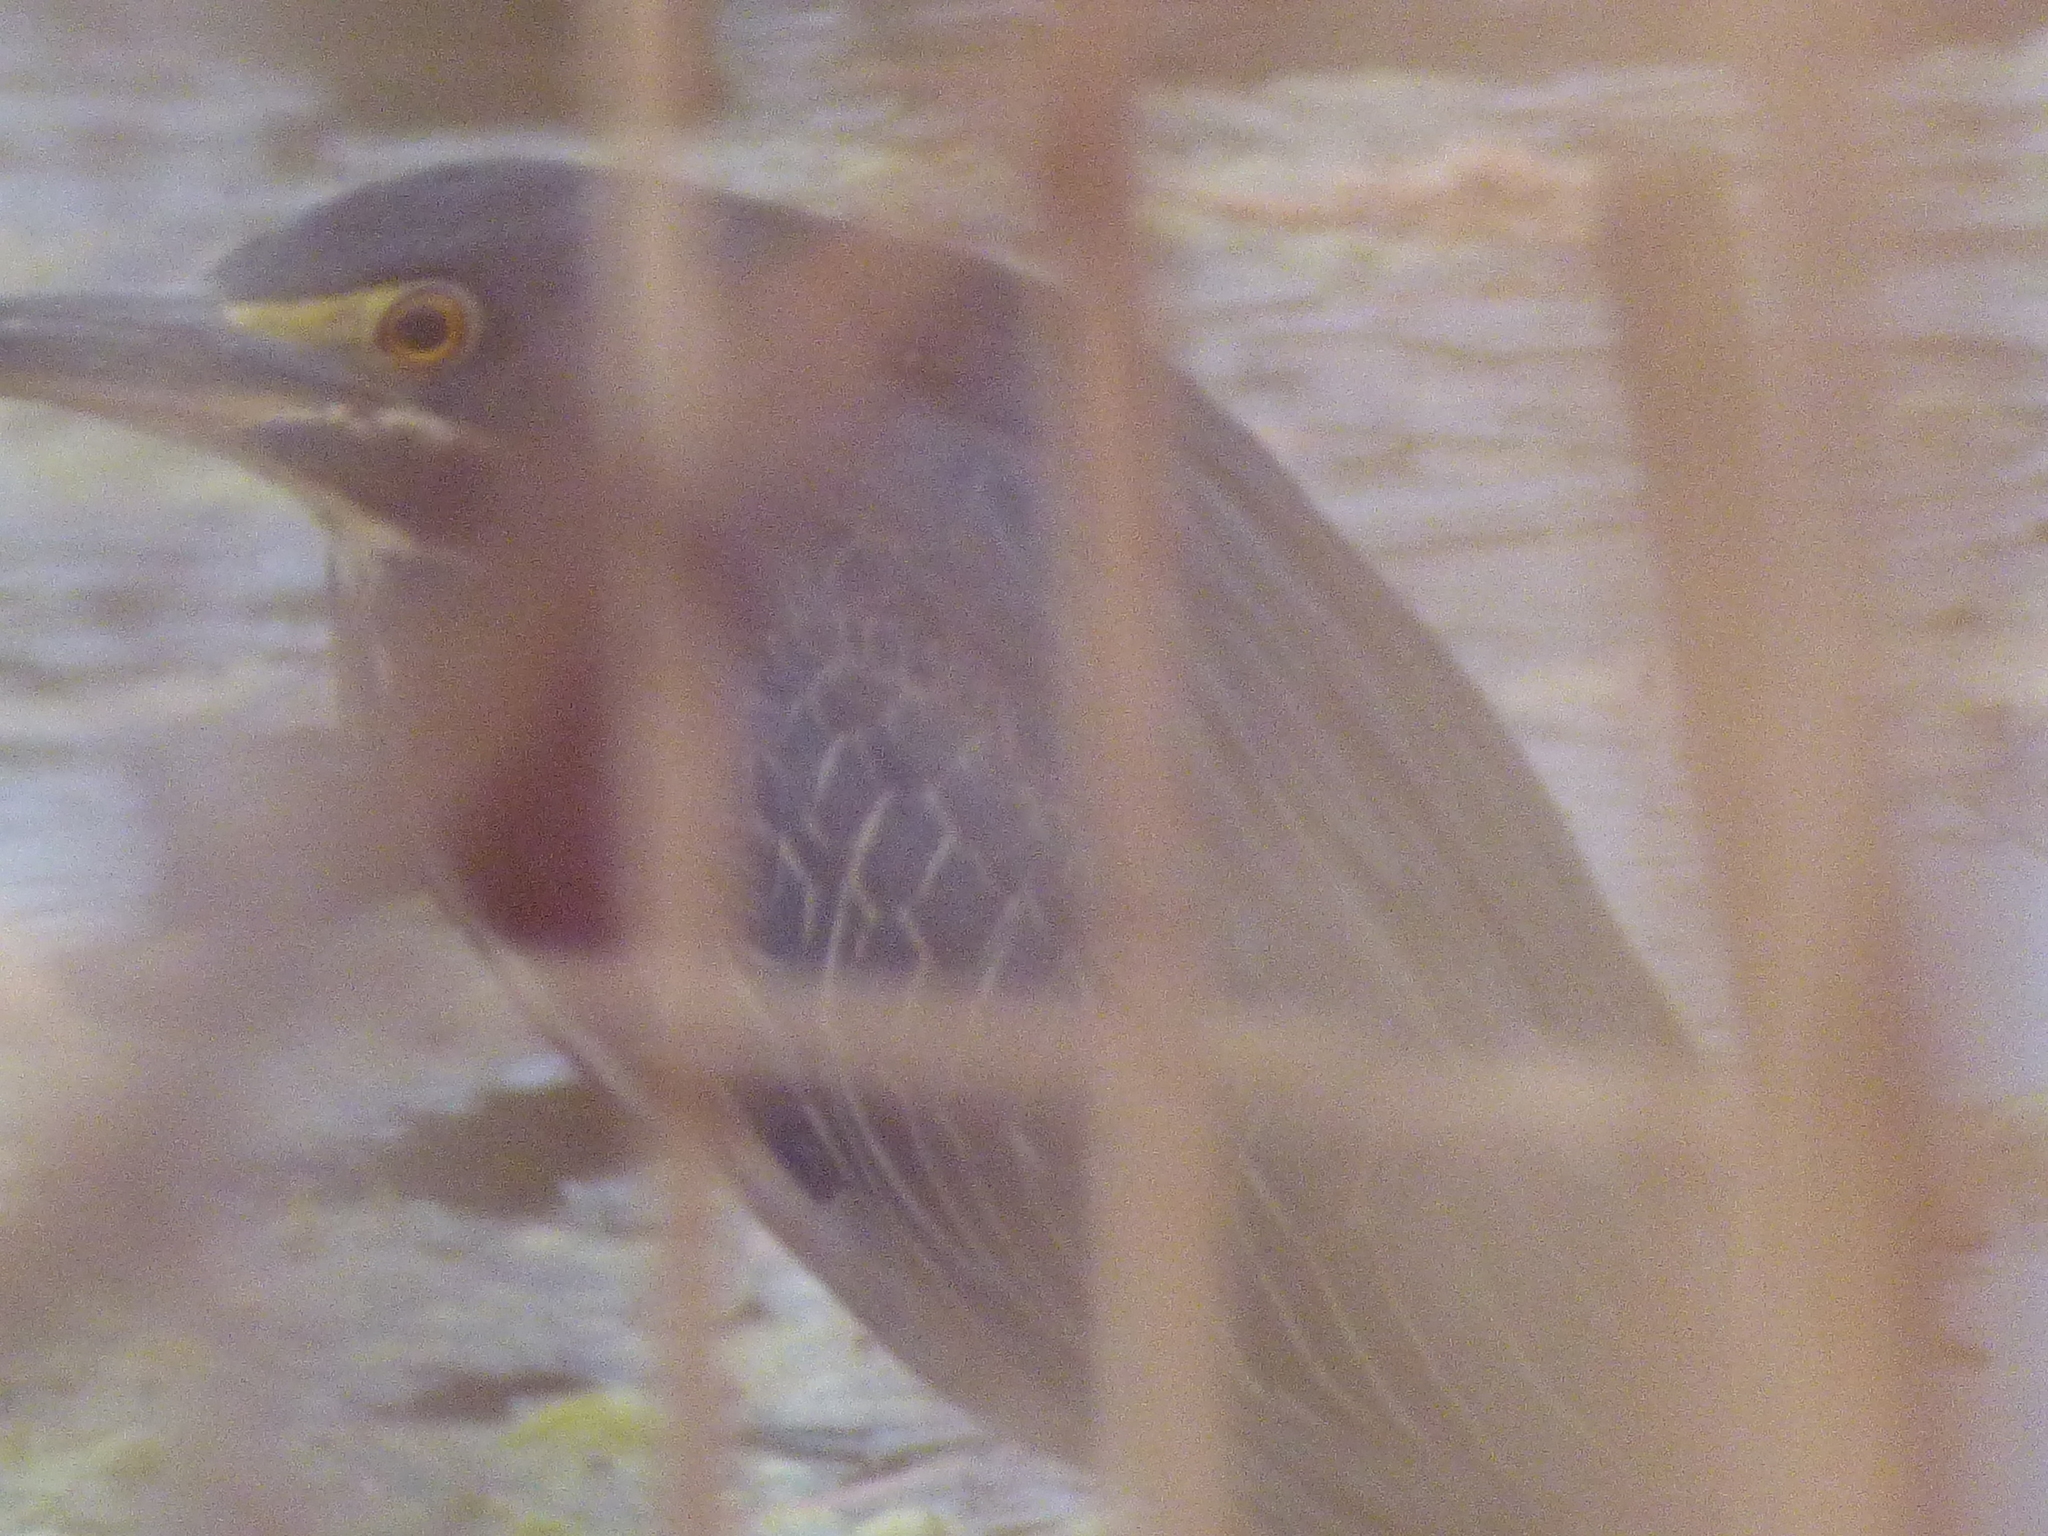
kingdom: Animalia
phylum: Chordata
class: Aves
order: Pelecaniformes
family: Ardeidae
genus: Butorides
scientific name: Butorides virescens
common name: Green heron
